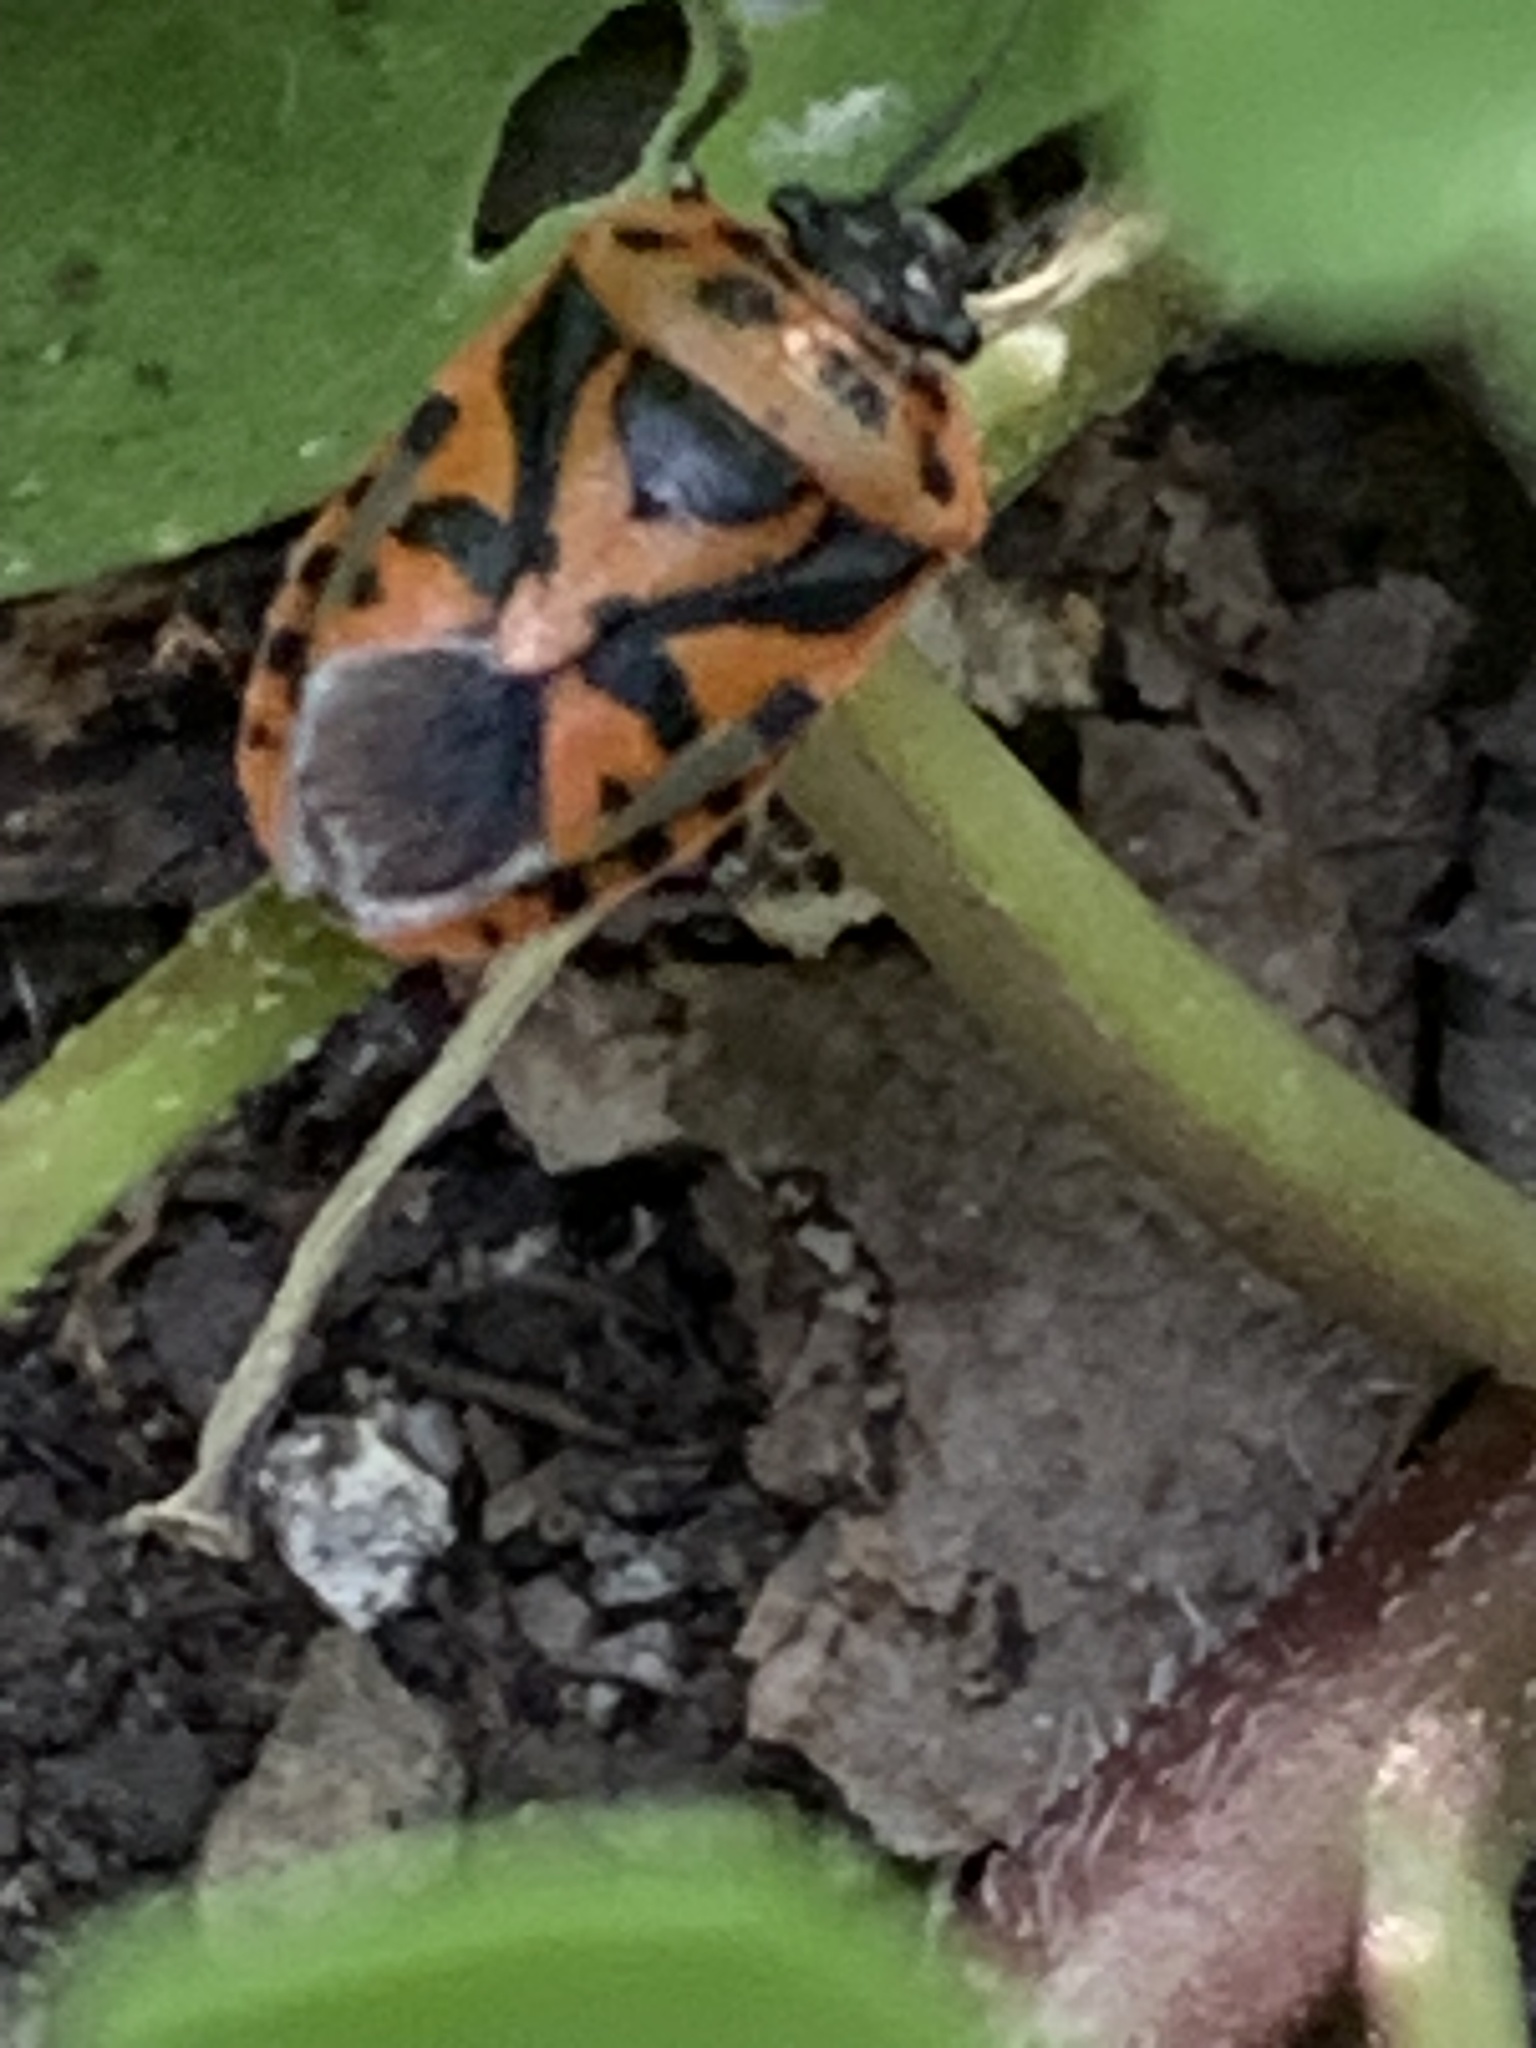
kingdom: Animalia
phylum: Arthropoda
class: Insecta
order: Hemiptera
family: Pentatomidae
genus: Eurydema
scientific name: Eurydema ornata
